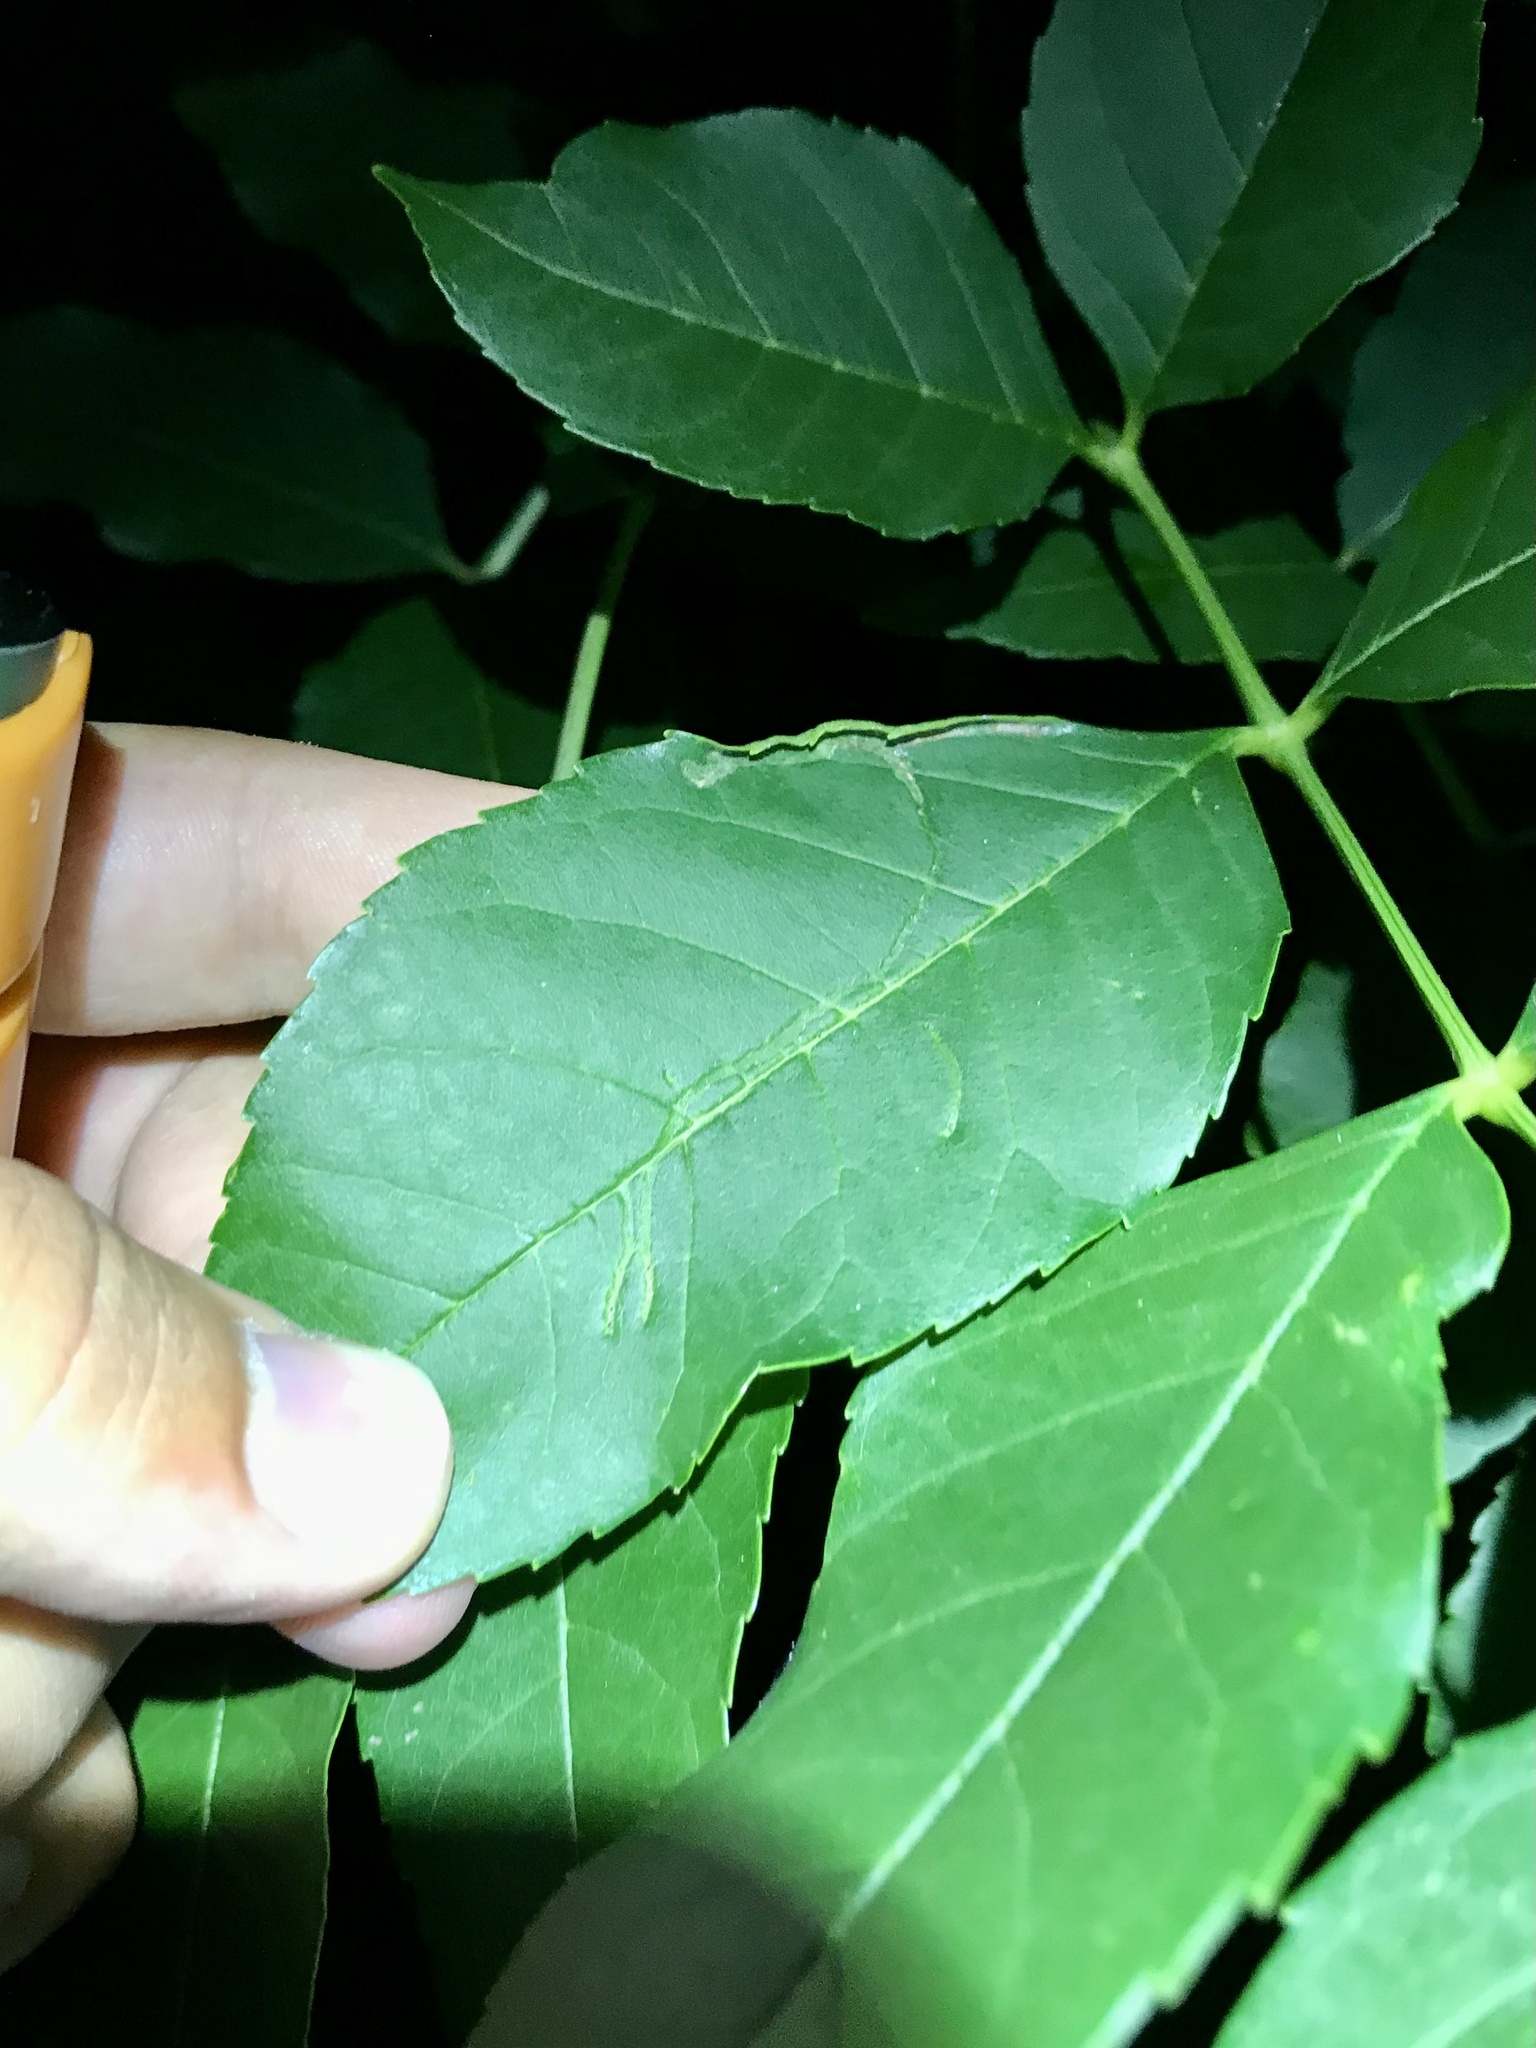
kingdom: Animalia
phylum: Arthropoda
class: Insecta
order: Lepidoptera
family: Gracillariidae
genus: Caloptilia
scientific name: Caloptilia fraxinella
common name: Ash leaf cone roller
